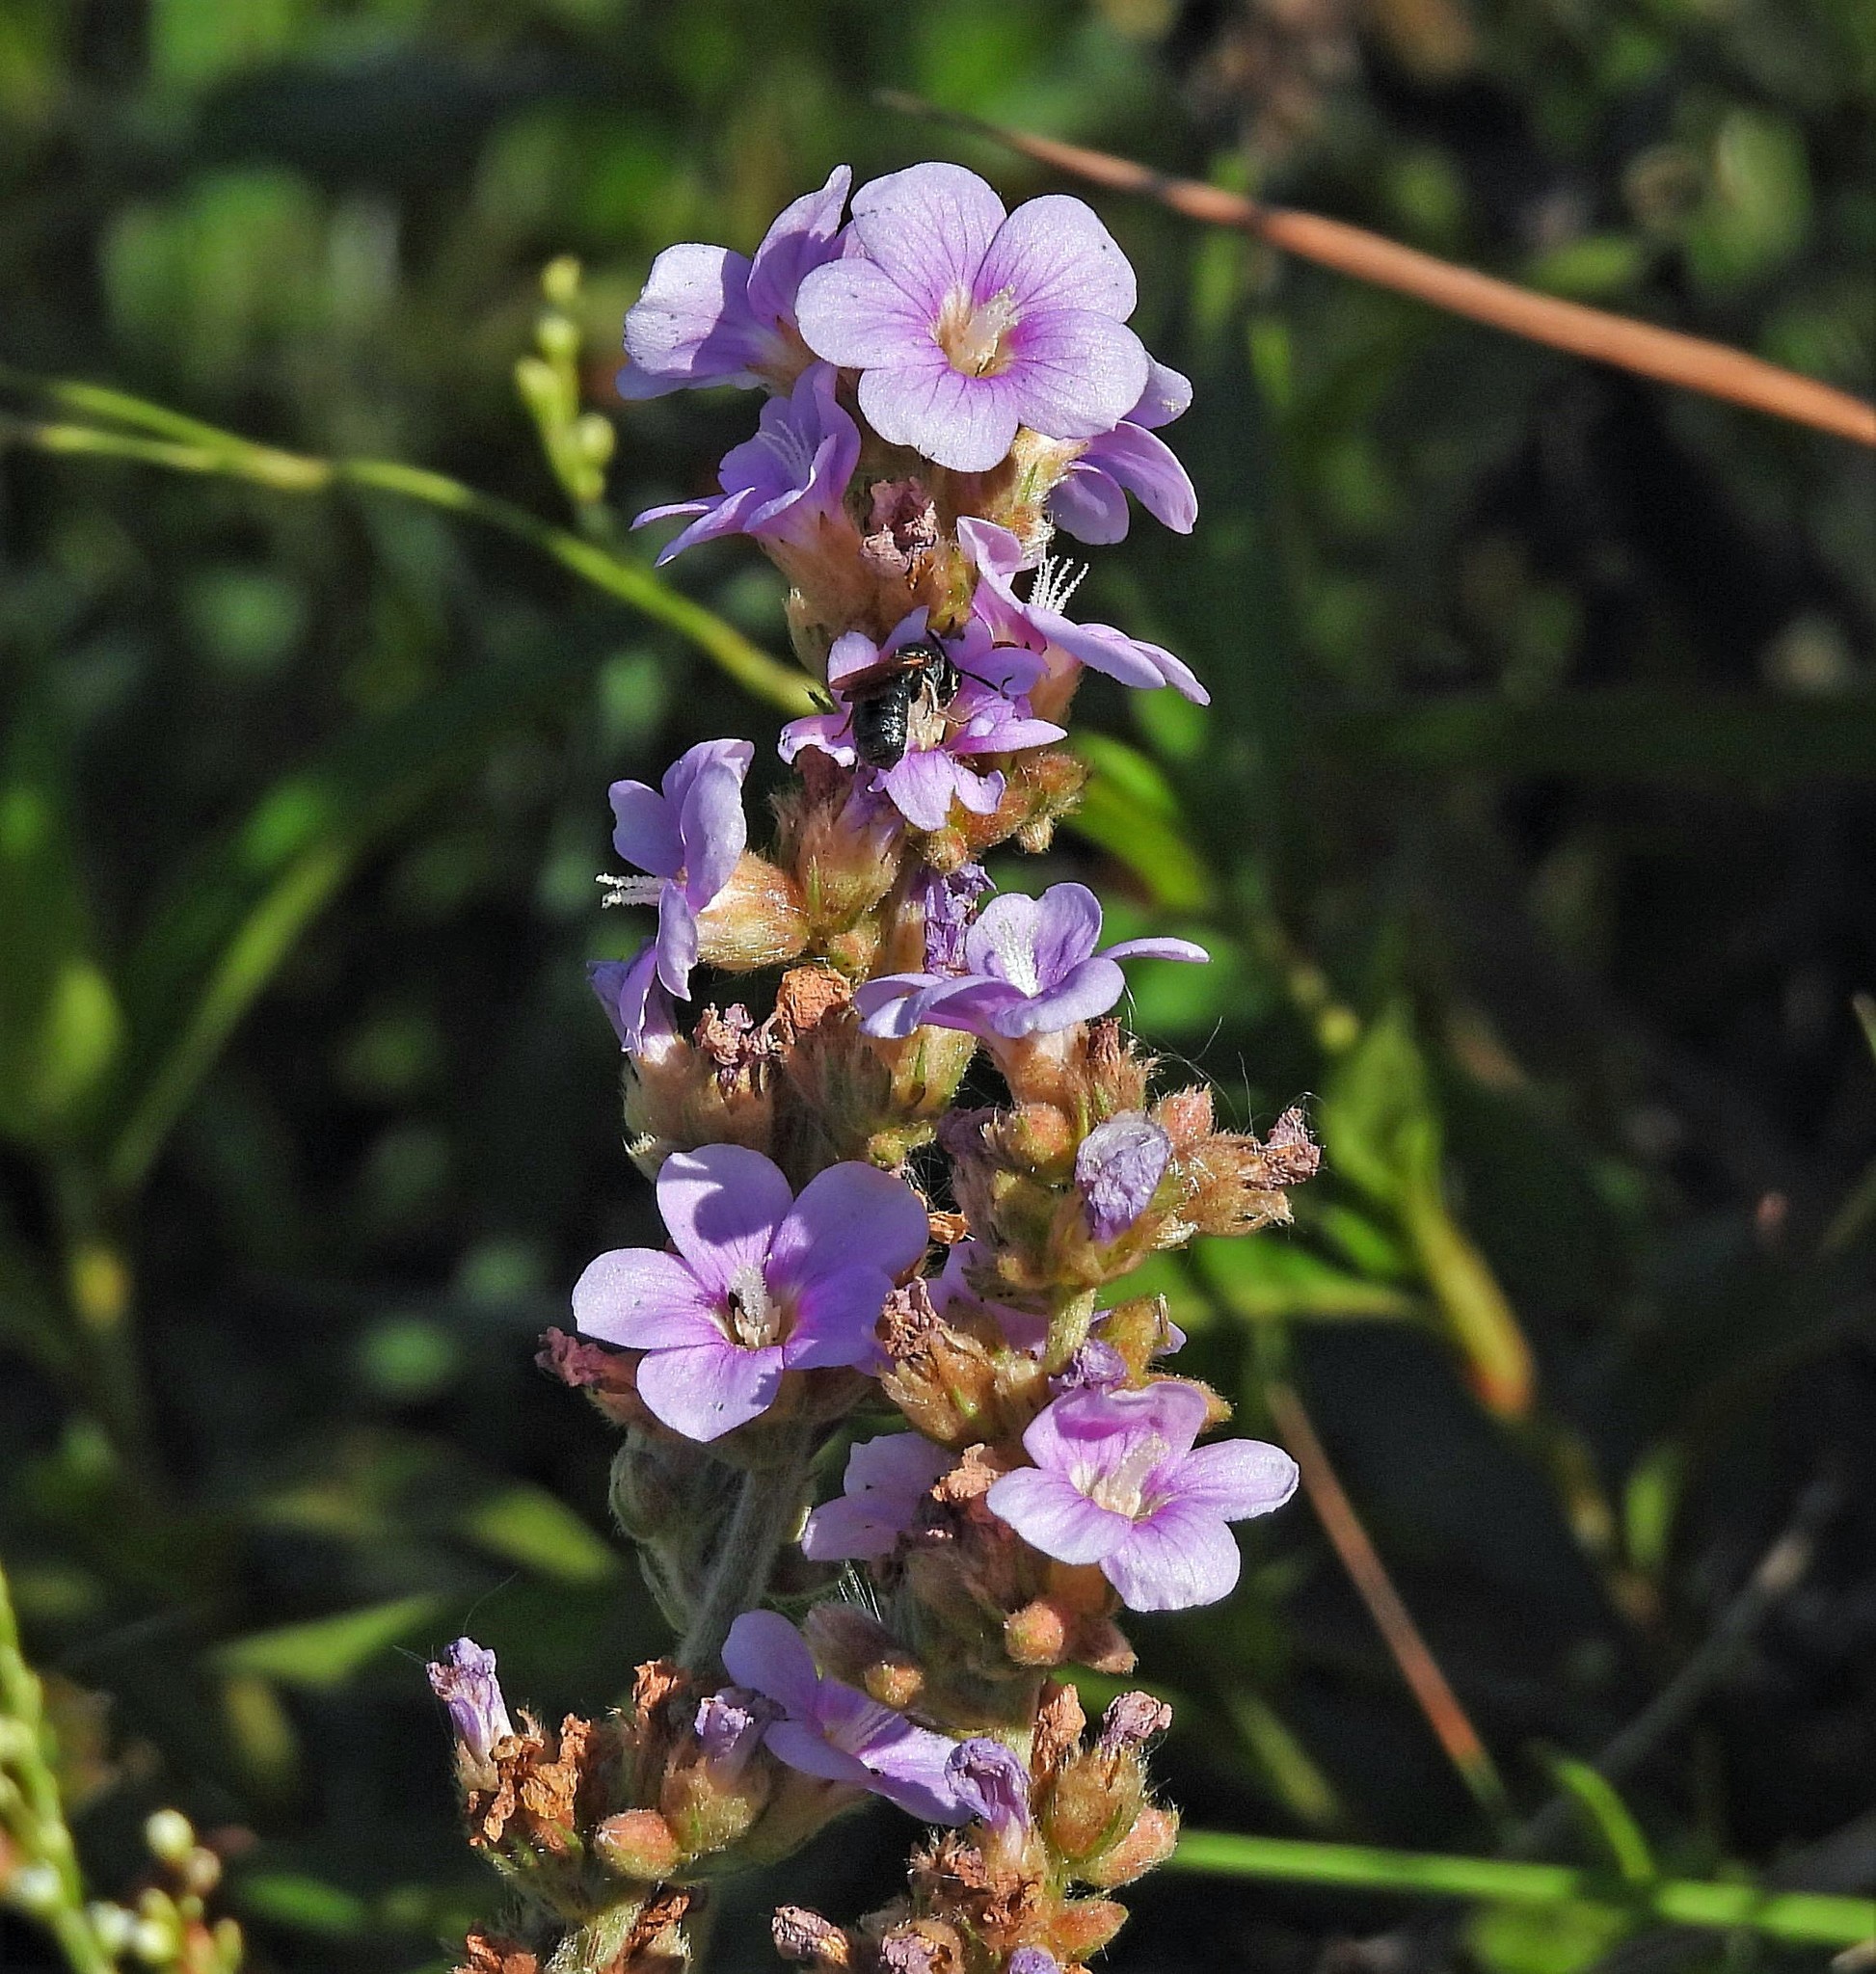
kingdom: Plantae
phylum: Tracheophyta
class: Magnoliopsida
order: Malvales
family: Malvaceae
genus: Melochia
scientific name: Melochia spicata
